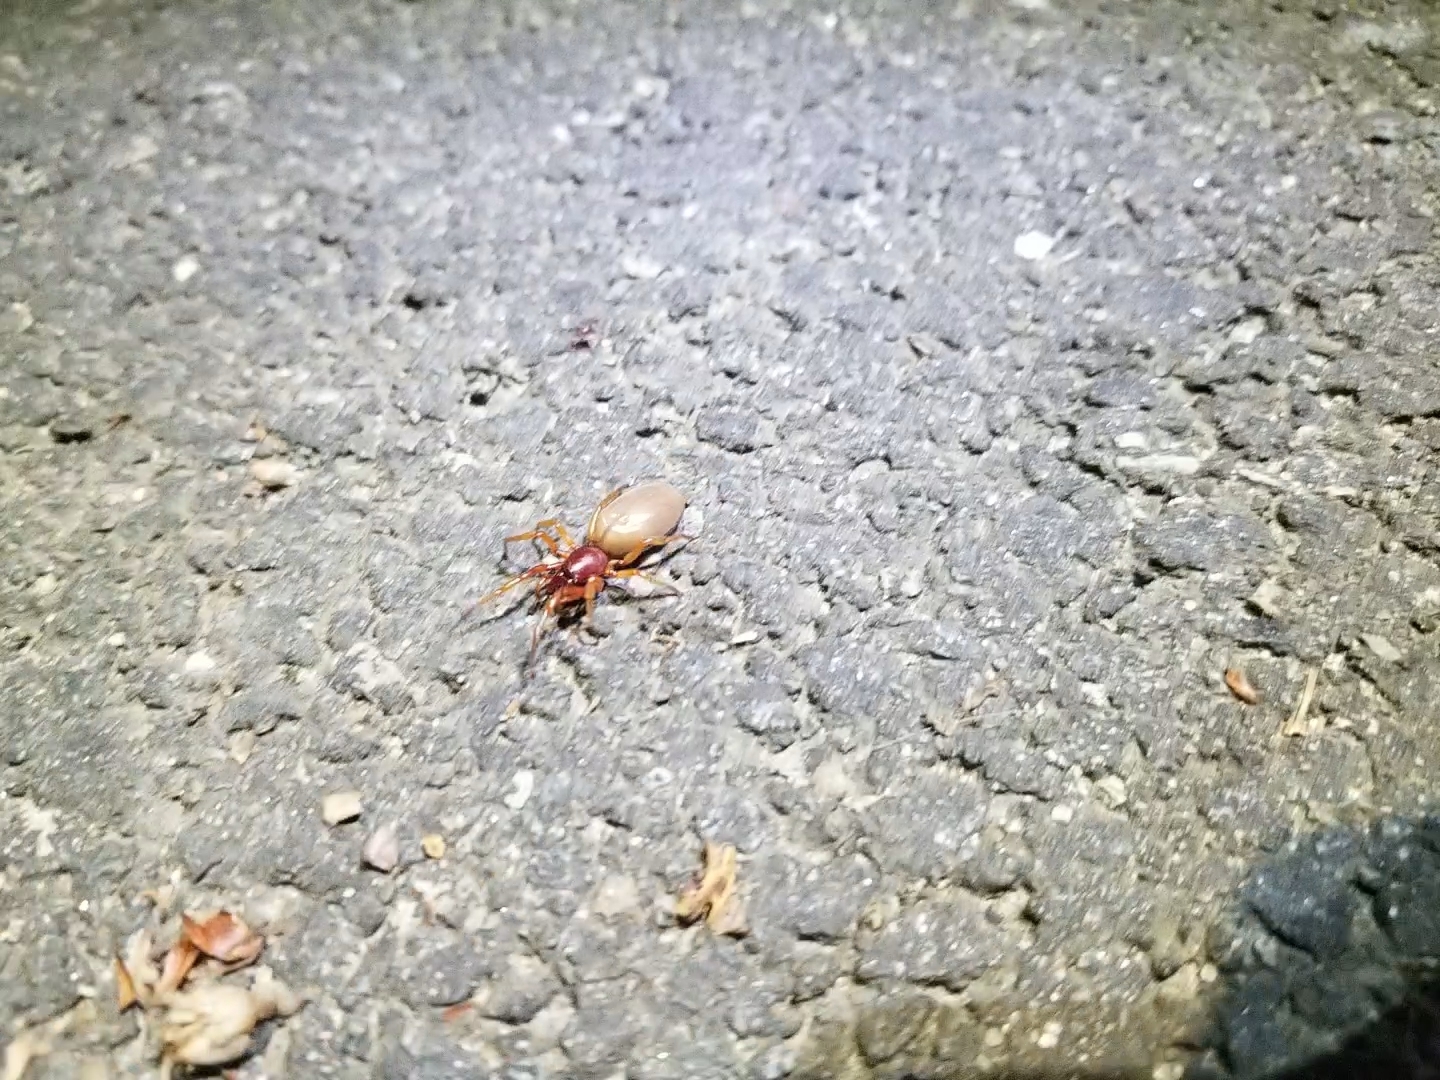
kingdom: Animalia
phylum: Arthropoda
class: Arachnida
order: Araneae
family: Dysderidae
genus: Dysdera
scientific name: Dysdera crocata
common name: Woodlouse spider
